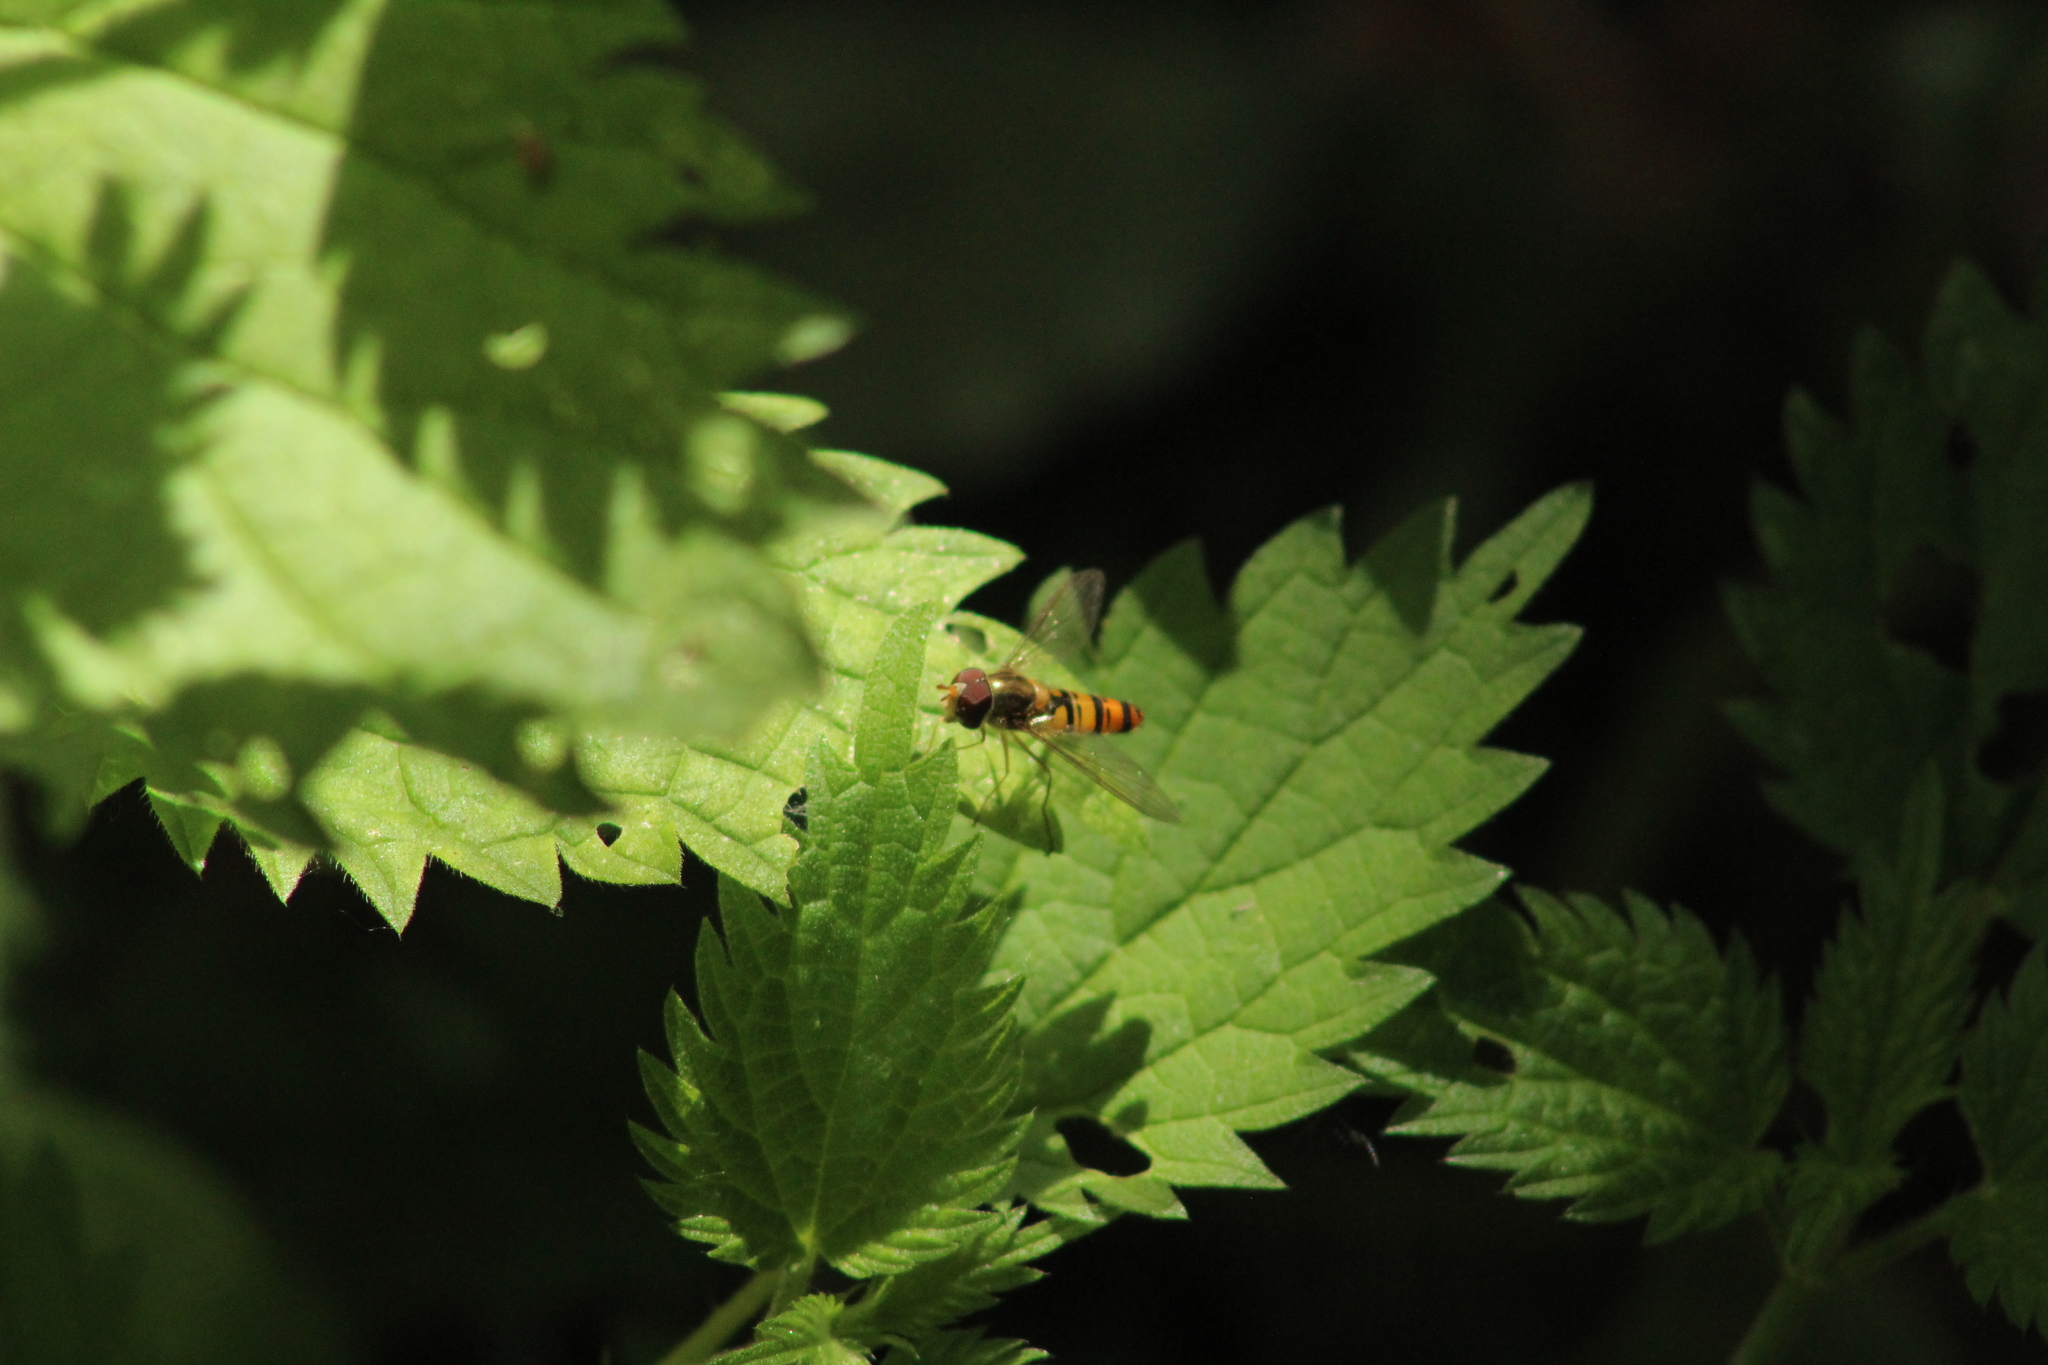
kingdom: Animalia
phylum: Arthropoda
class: Insecta
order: Diptera
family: Syrphidae
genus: Episyrphus
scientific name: Episyrphus balteatus
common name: Marmalade hoverfly
